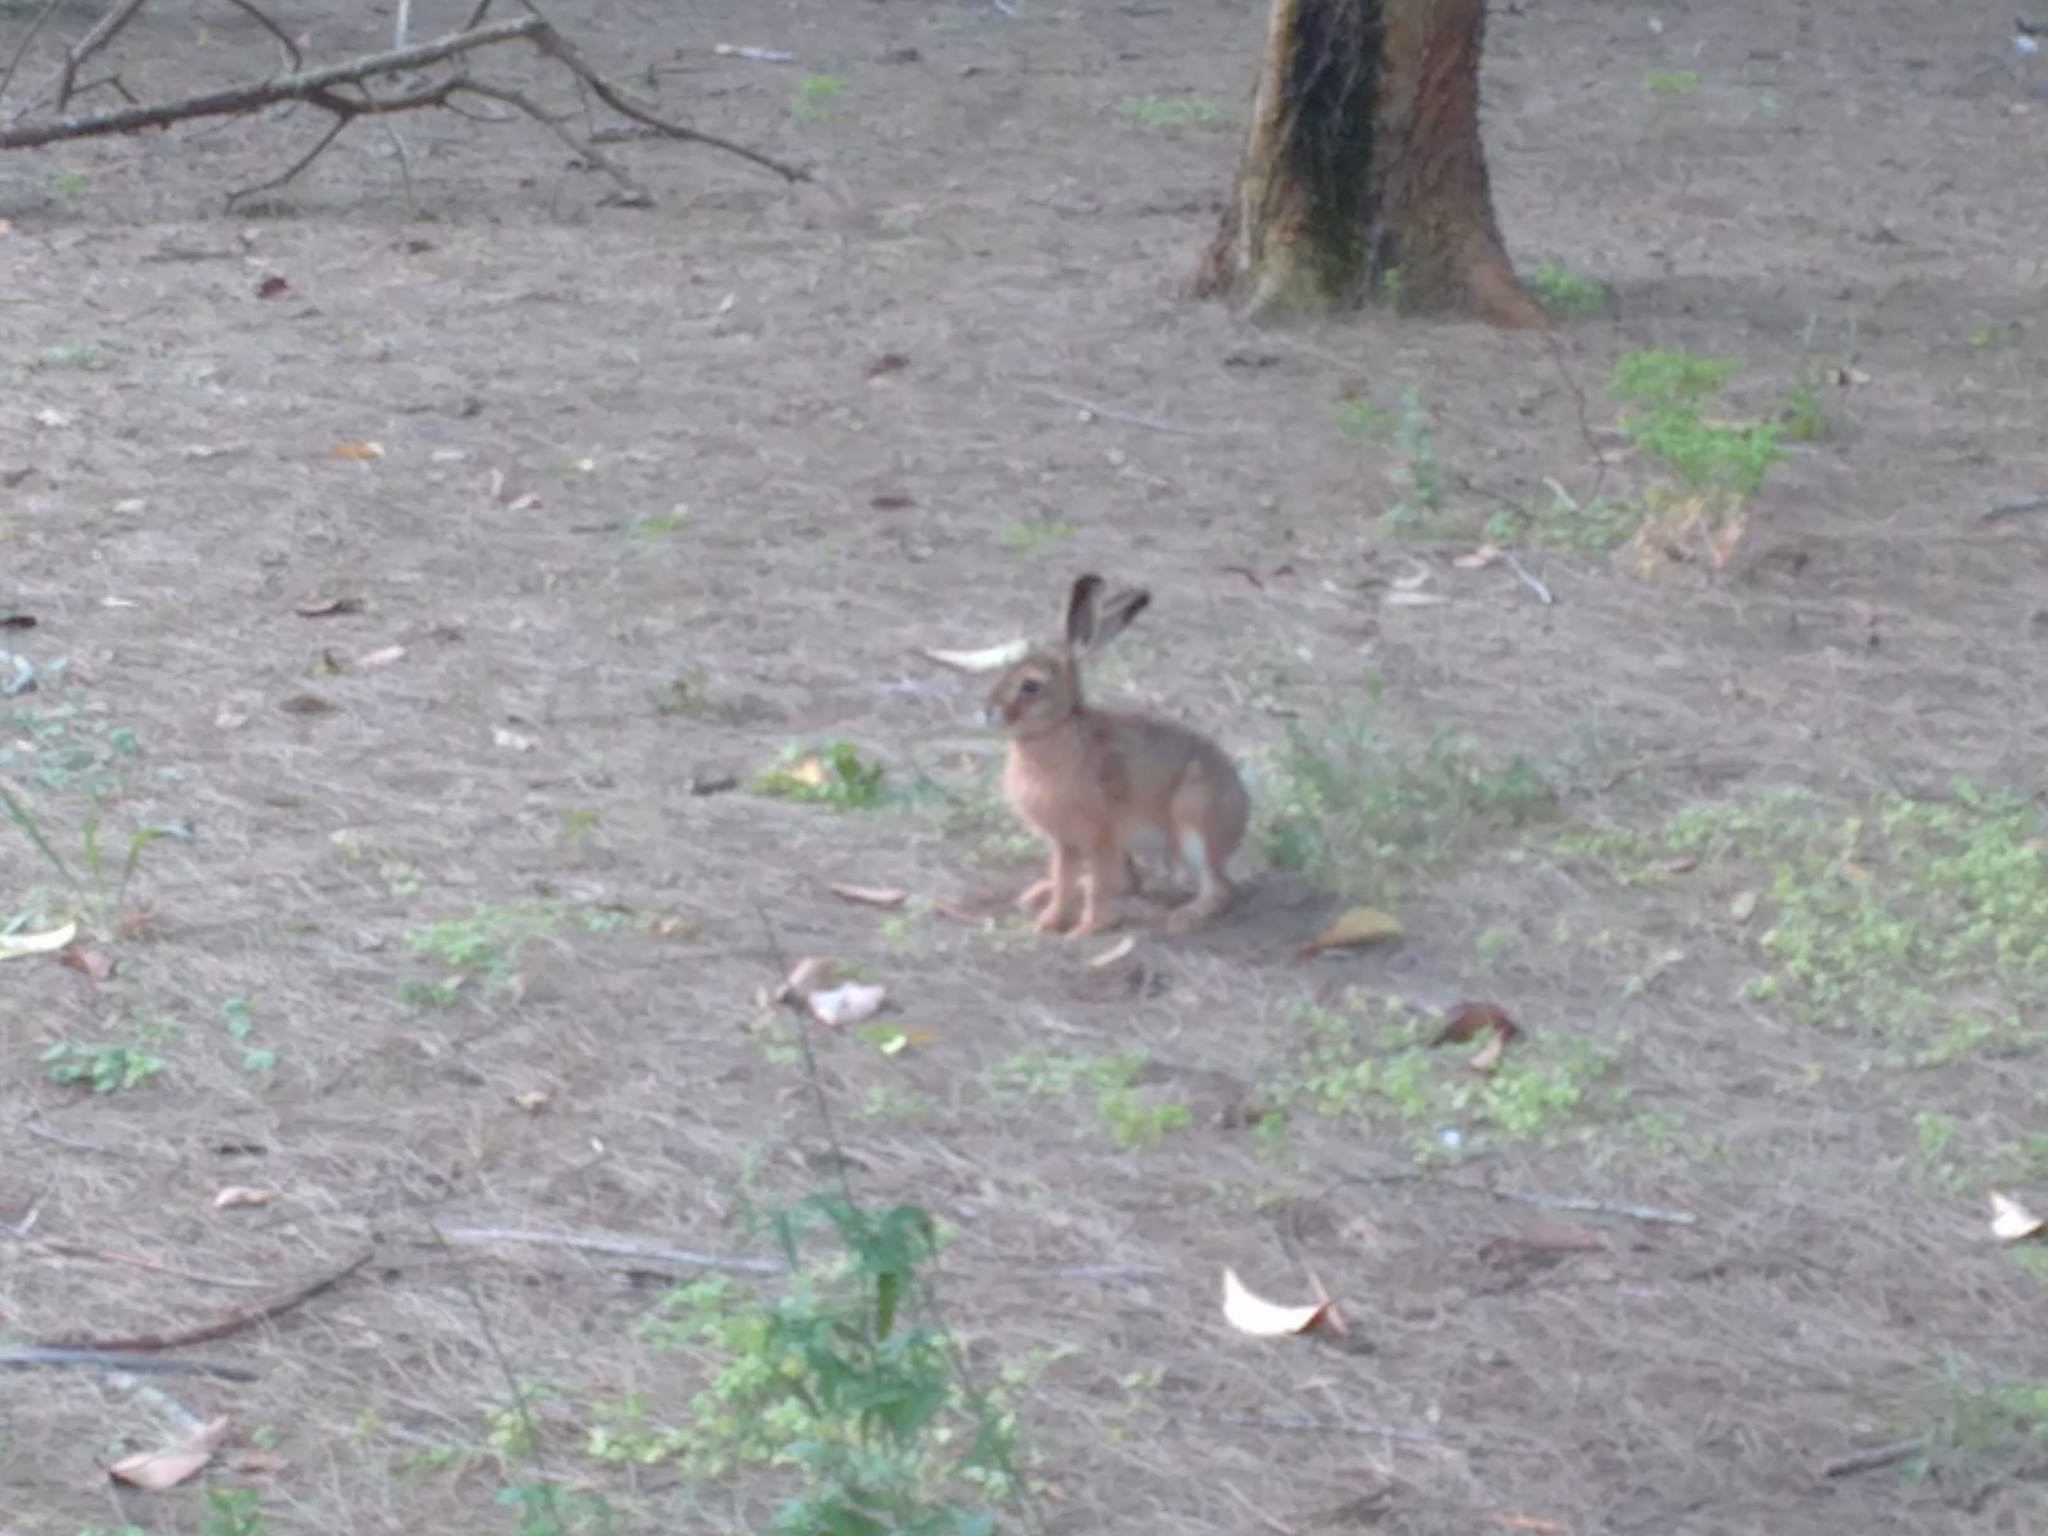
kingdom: Animalia
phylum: Chordata
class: Mammalia
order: Lagomorpha
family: Leporidae
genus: Lepus
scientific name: Lepus europaeus
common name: European hare
